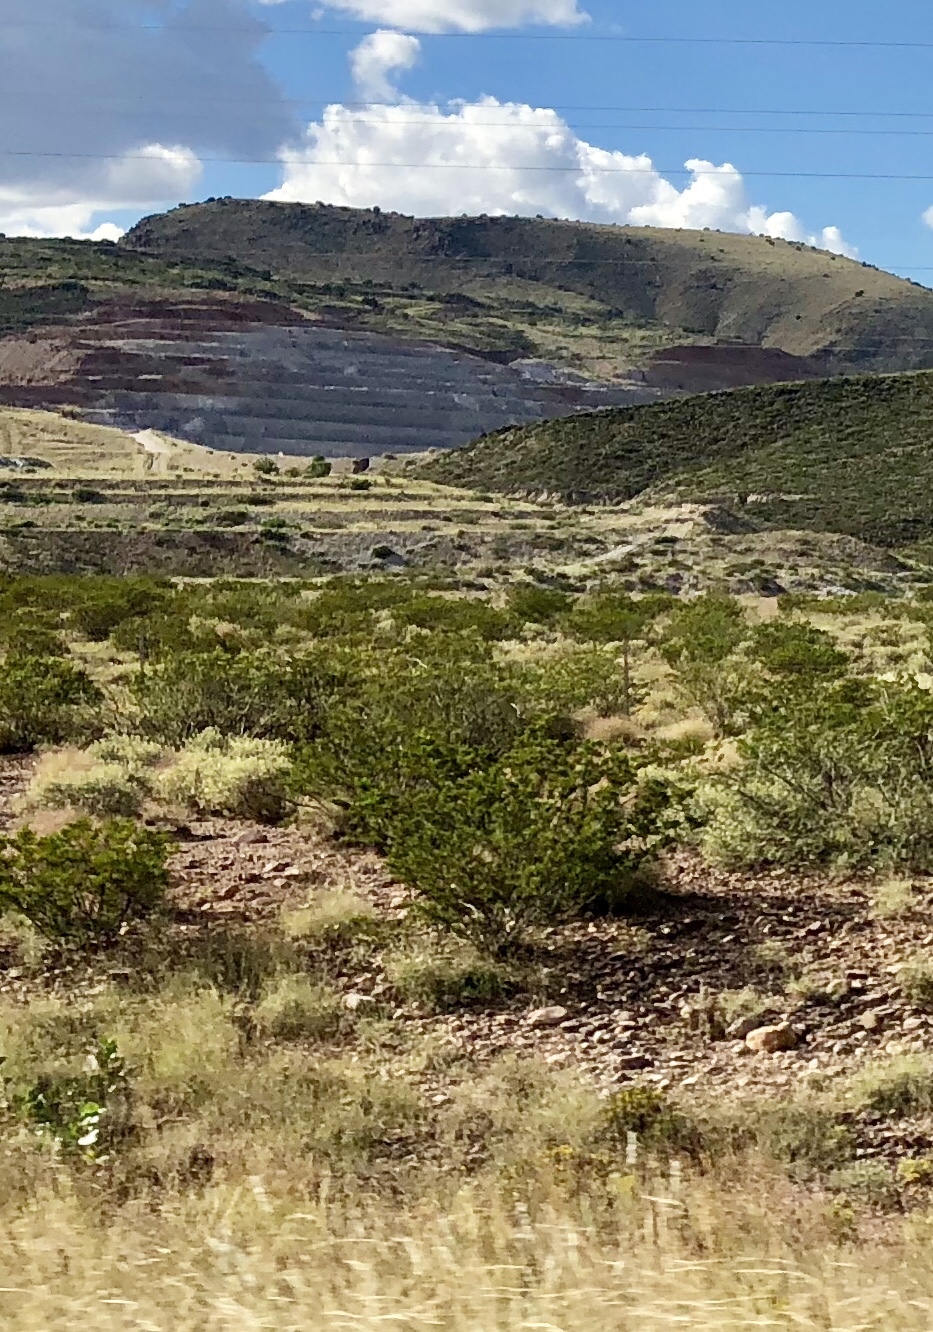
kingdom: Plantae
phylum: Tracheophyta
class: Magnoliopsida
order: Zygophyllales
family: Zygophyllaceae
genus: Larrea
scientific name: Larrea tridentata
